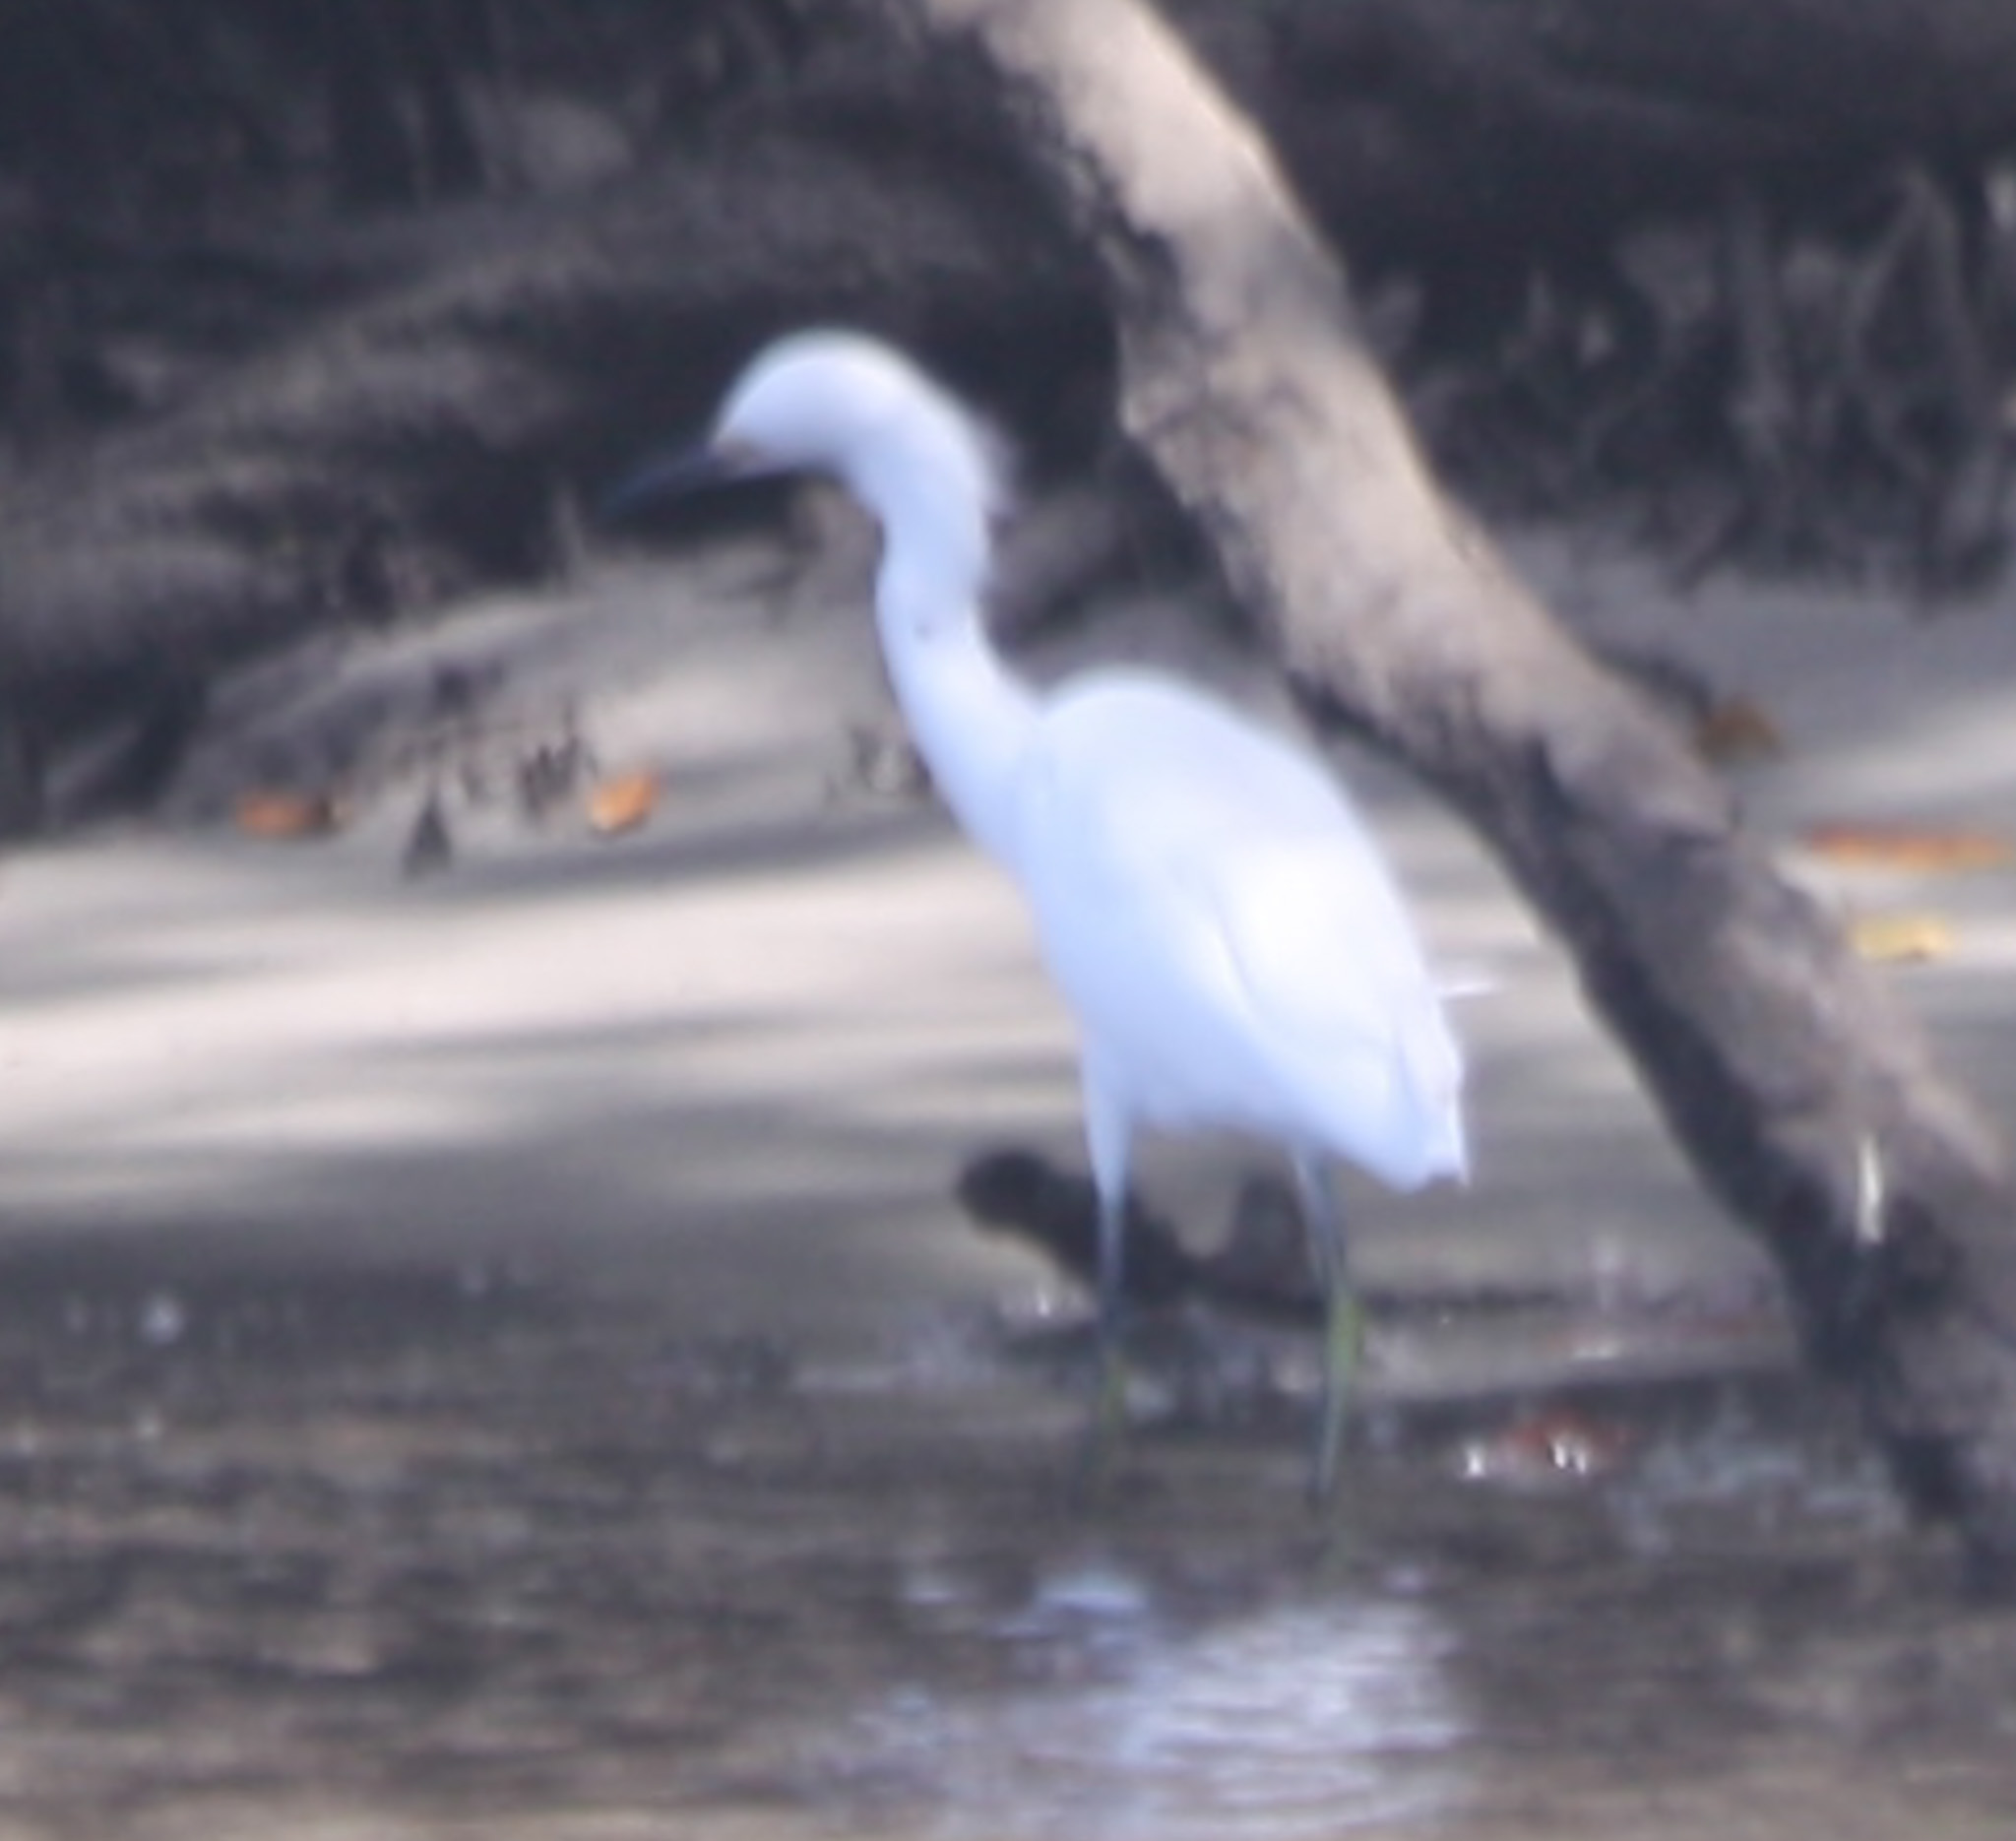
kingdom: Animalia
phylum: Chordata
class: Aves
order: Pelecaniformes
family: Ardeidae
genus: Egretta
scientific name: Egretta thula
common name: Snowy egret
